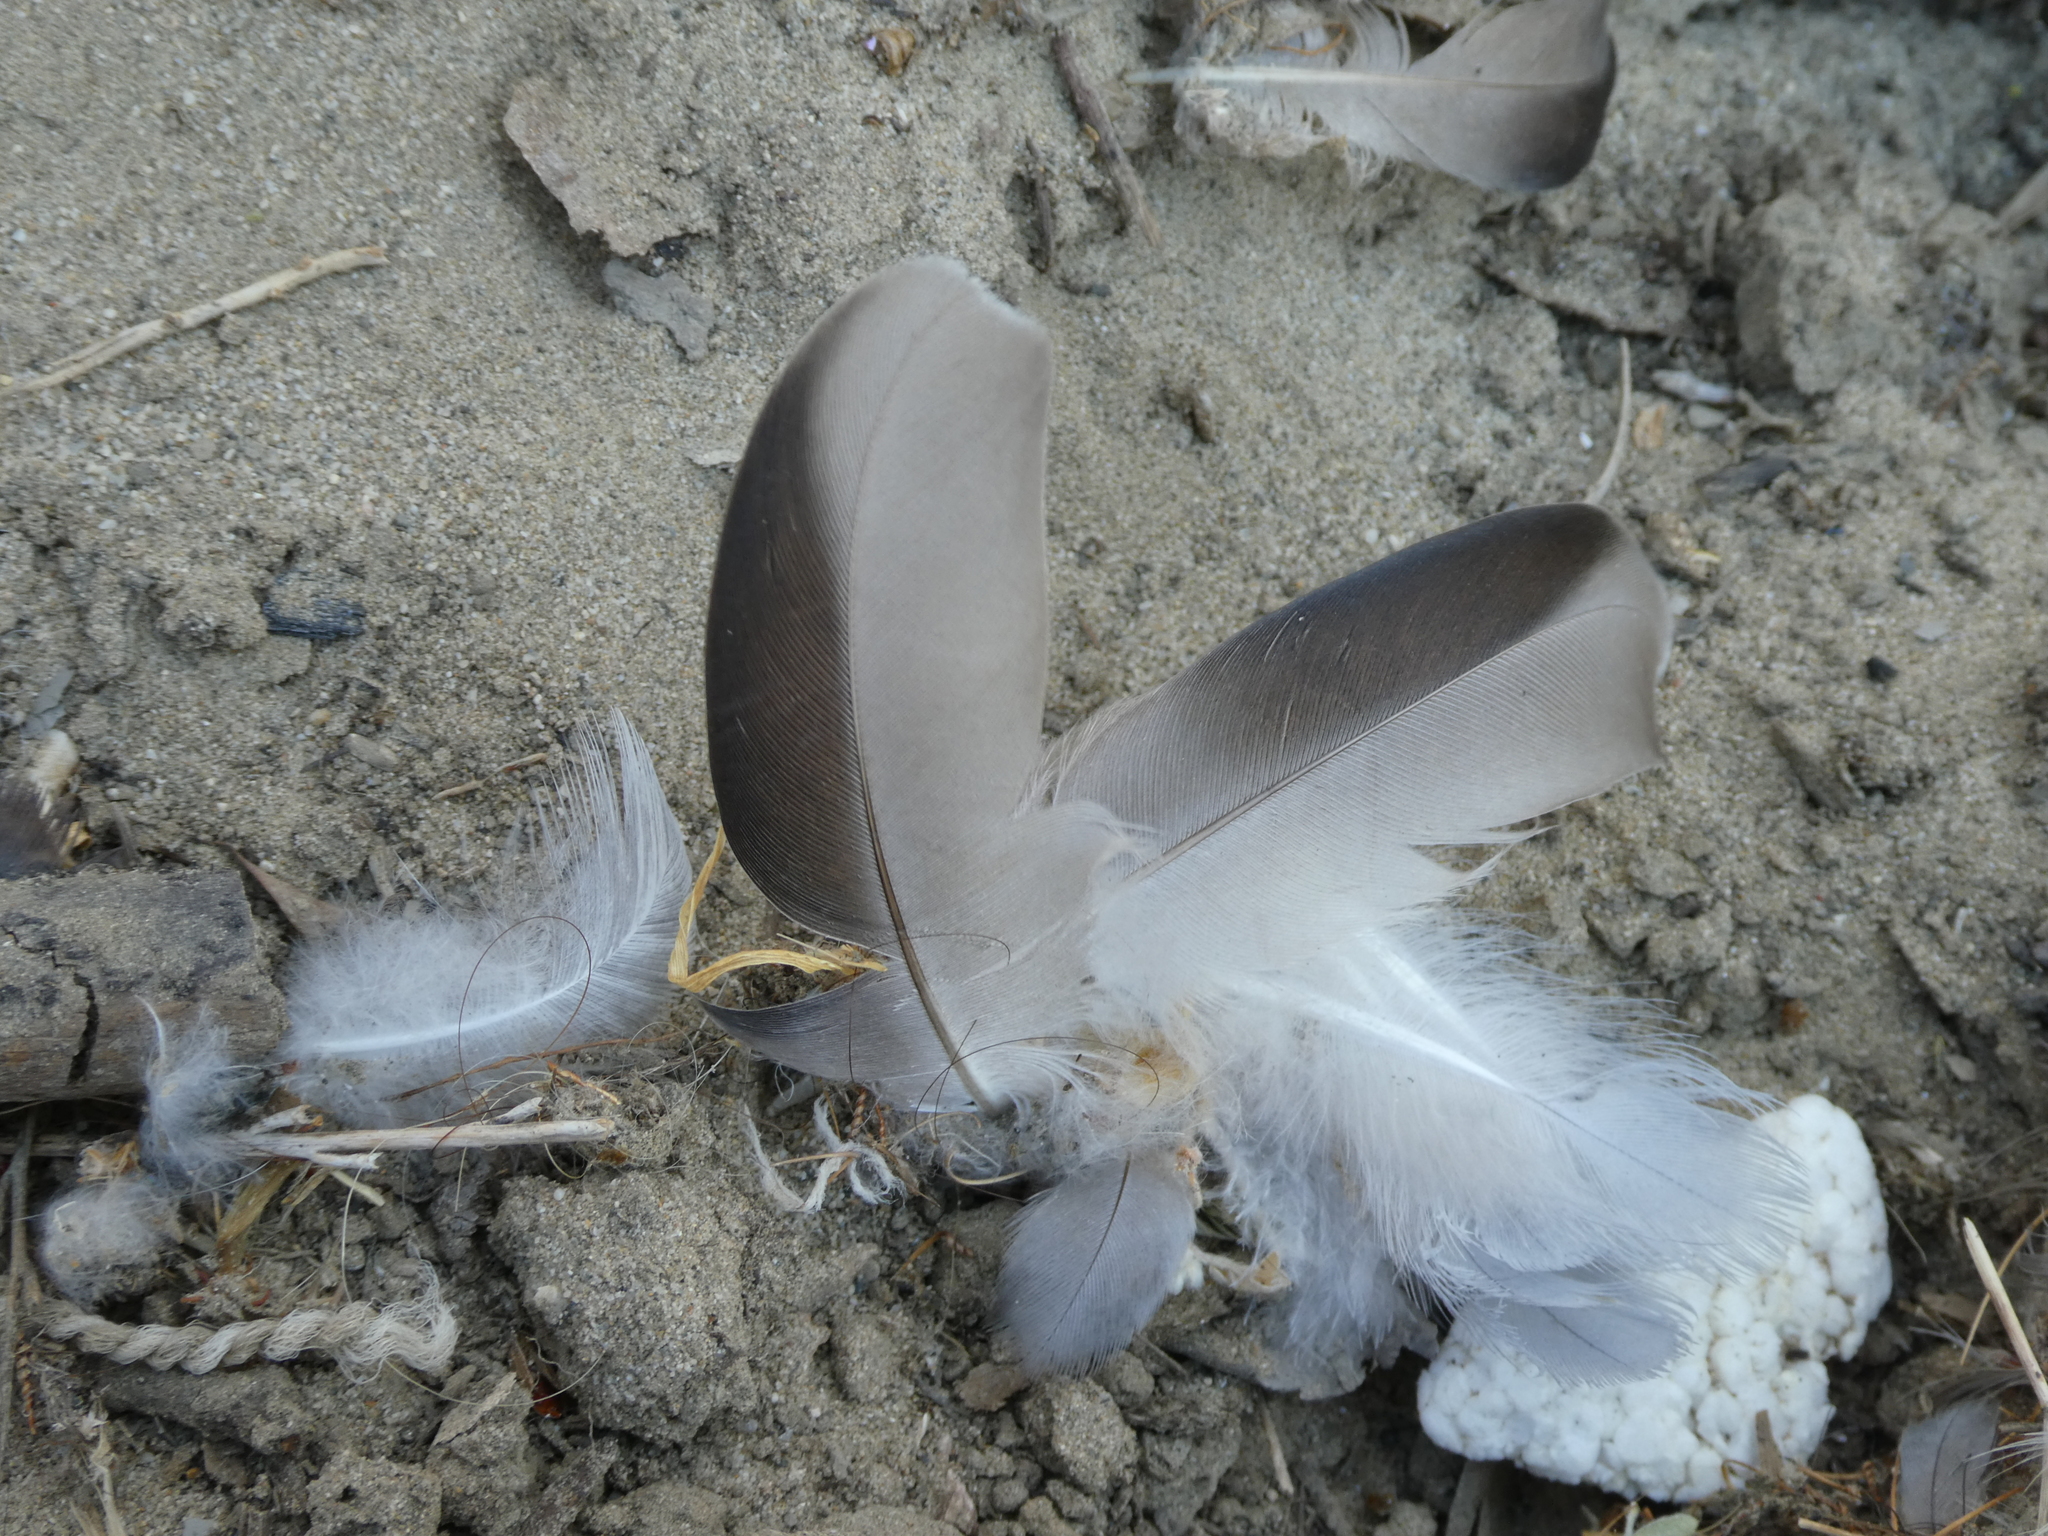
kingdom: Animalia
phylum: Chordata
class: Aves
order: Columbiformes
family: Columbidae
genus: Columba
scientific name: Columba livia
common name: Rock pigeon
